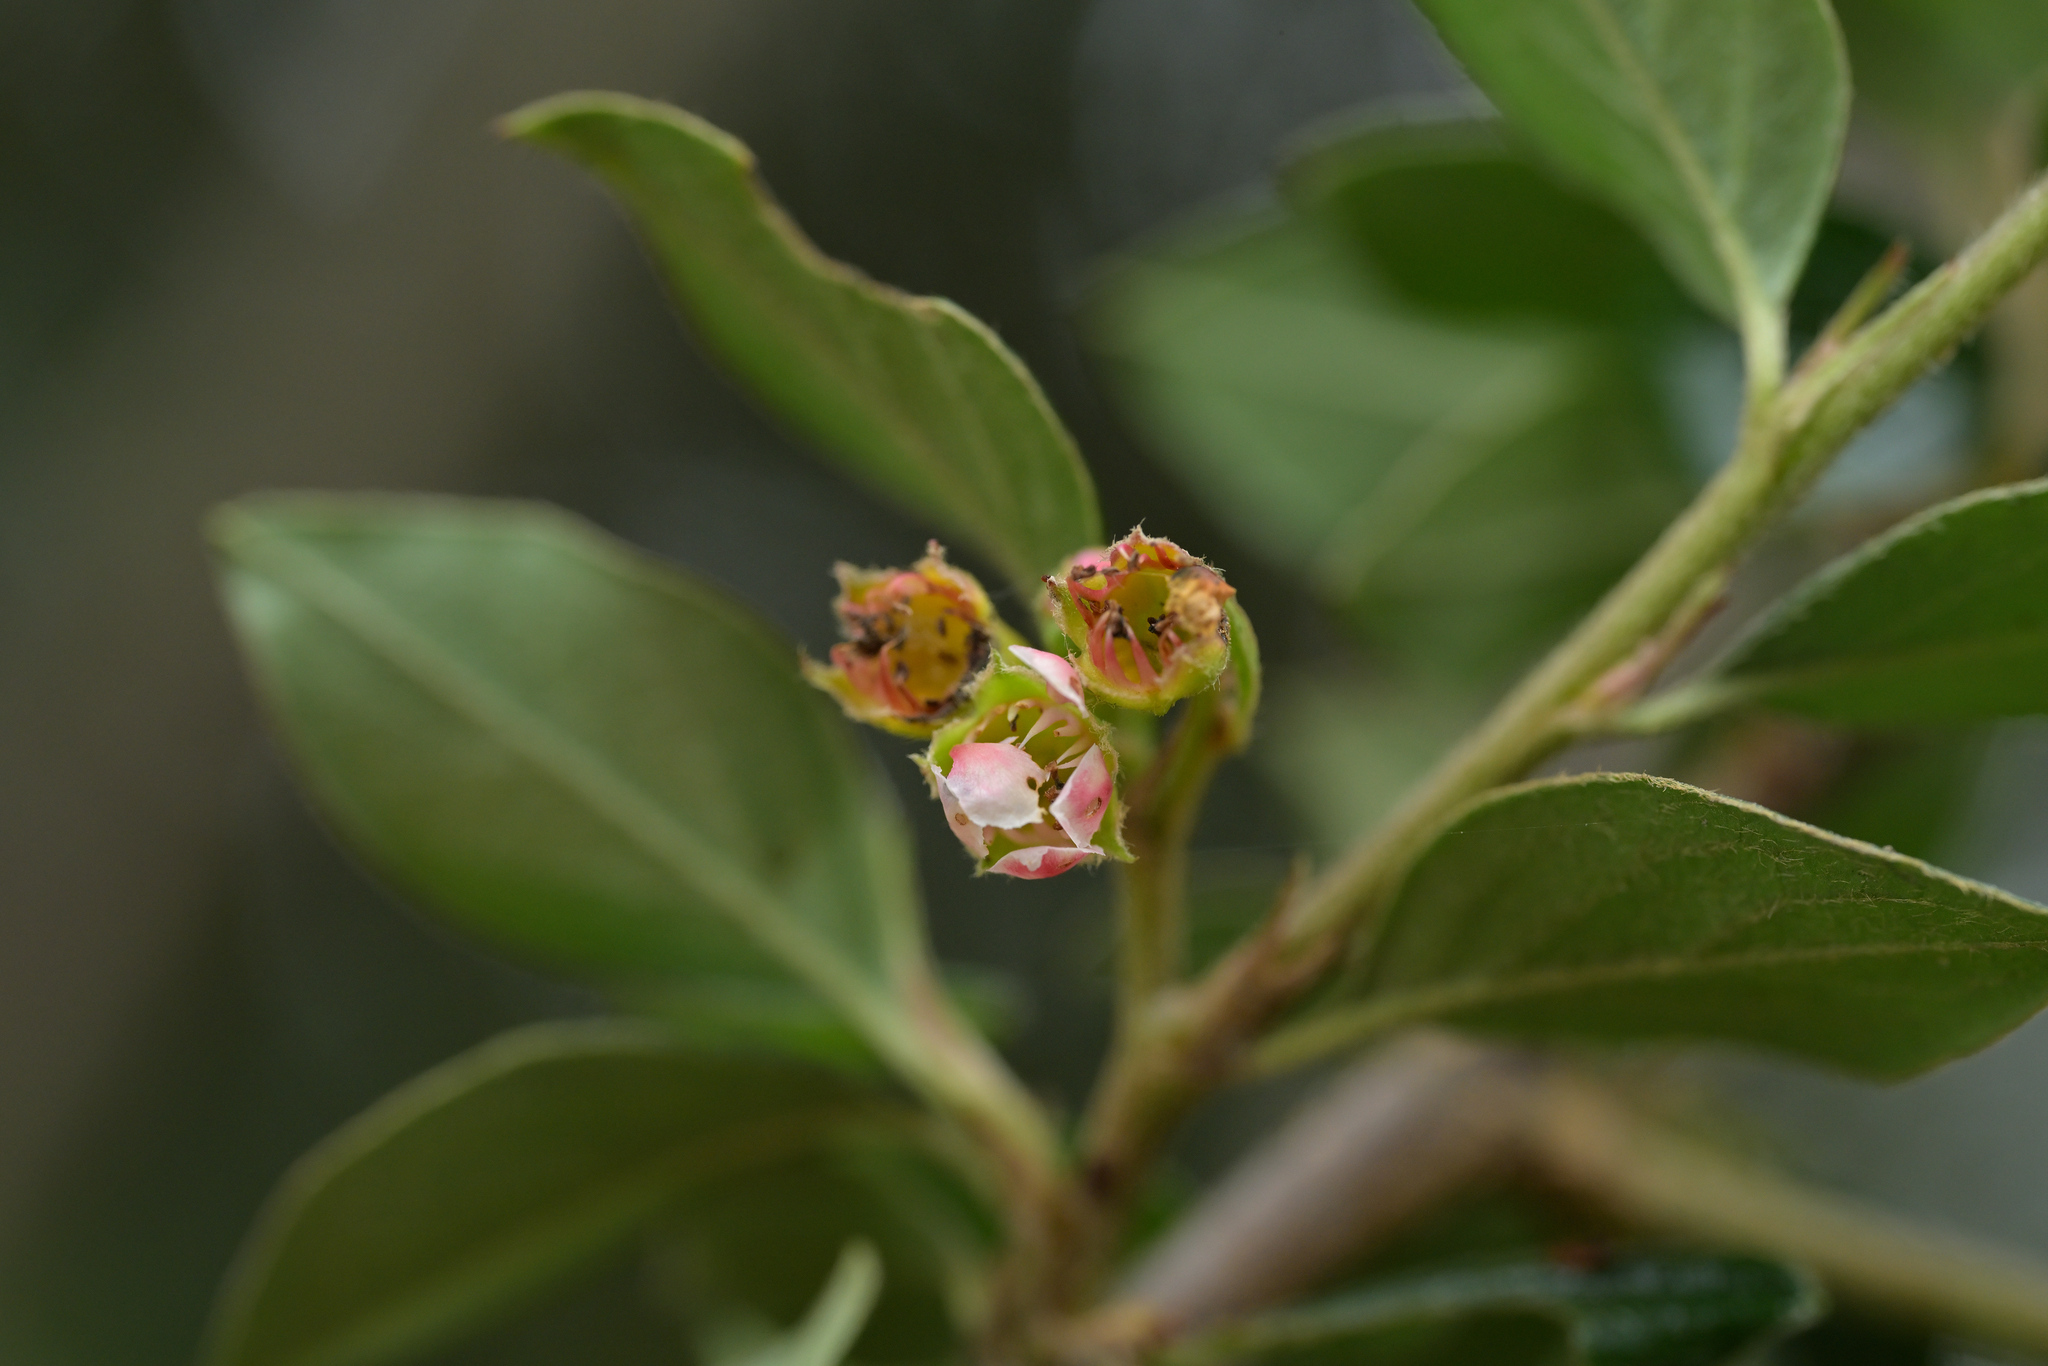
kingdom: Plantae
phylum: Tracheophyta
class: Magnoliopsida
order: Rosales
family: Rosaceae
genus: Cotoneaster
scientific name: Cotoneaster simonsii
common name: Himalayan cotoneaster
